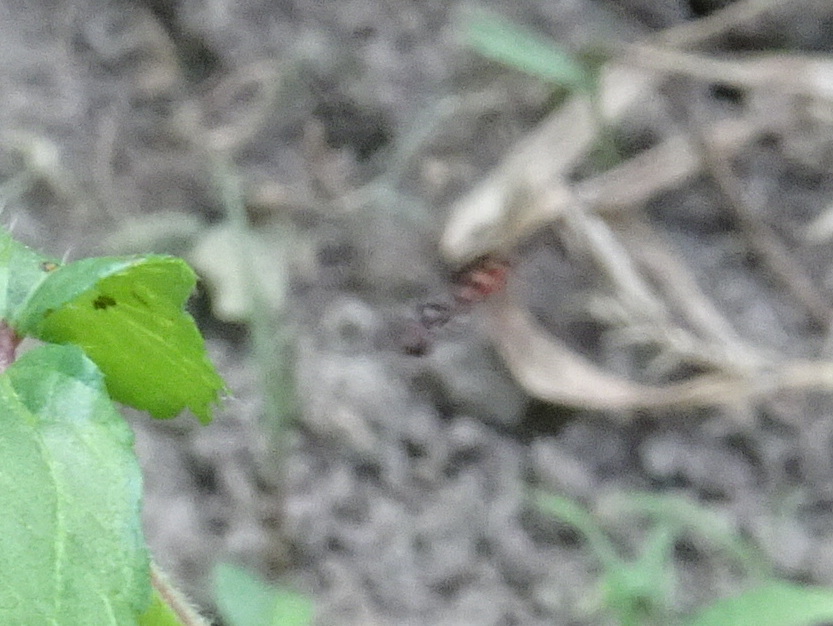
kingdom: Animalia
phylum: Arthropoda
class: Insecta
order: Diptera
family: Syrphidae
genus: Ocyptamus
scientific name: Ocyptamus fuscipennis
